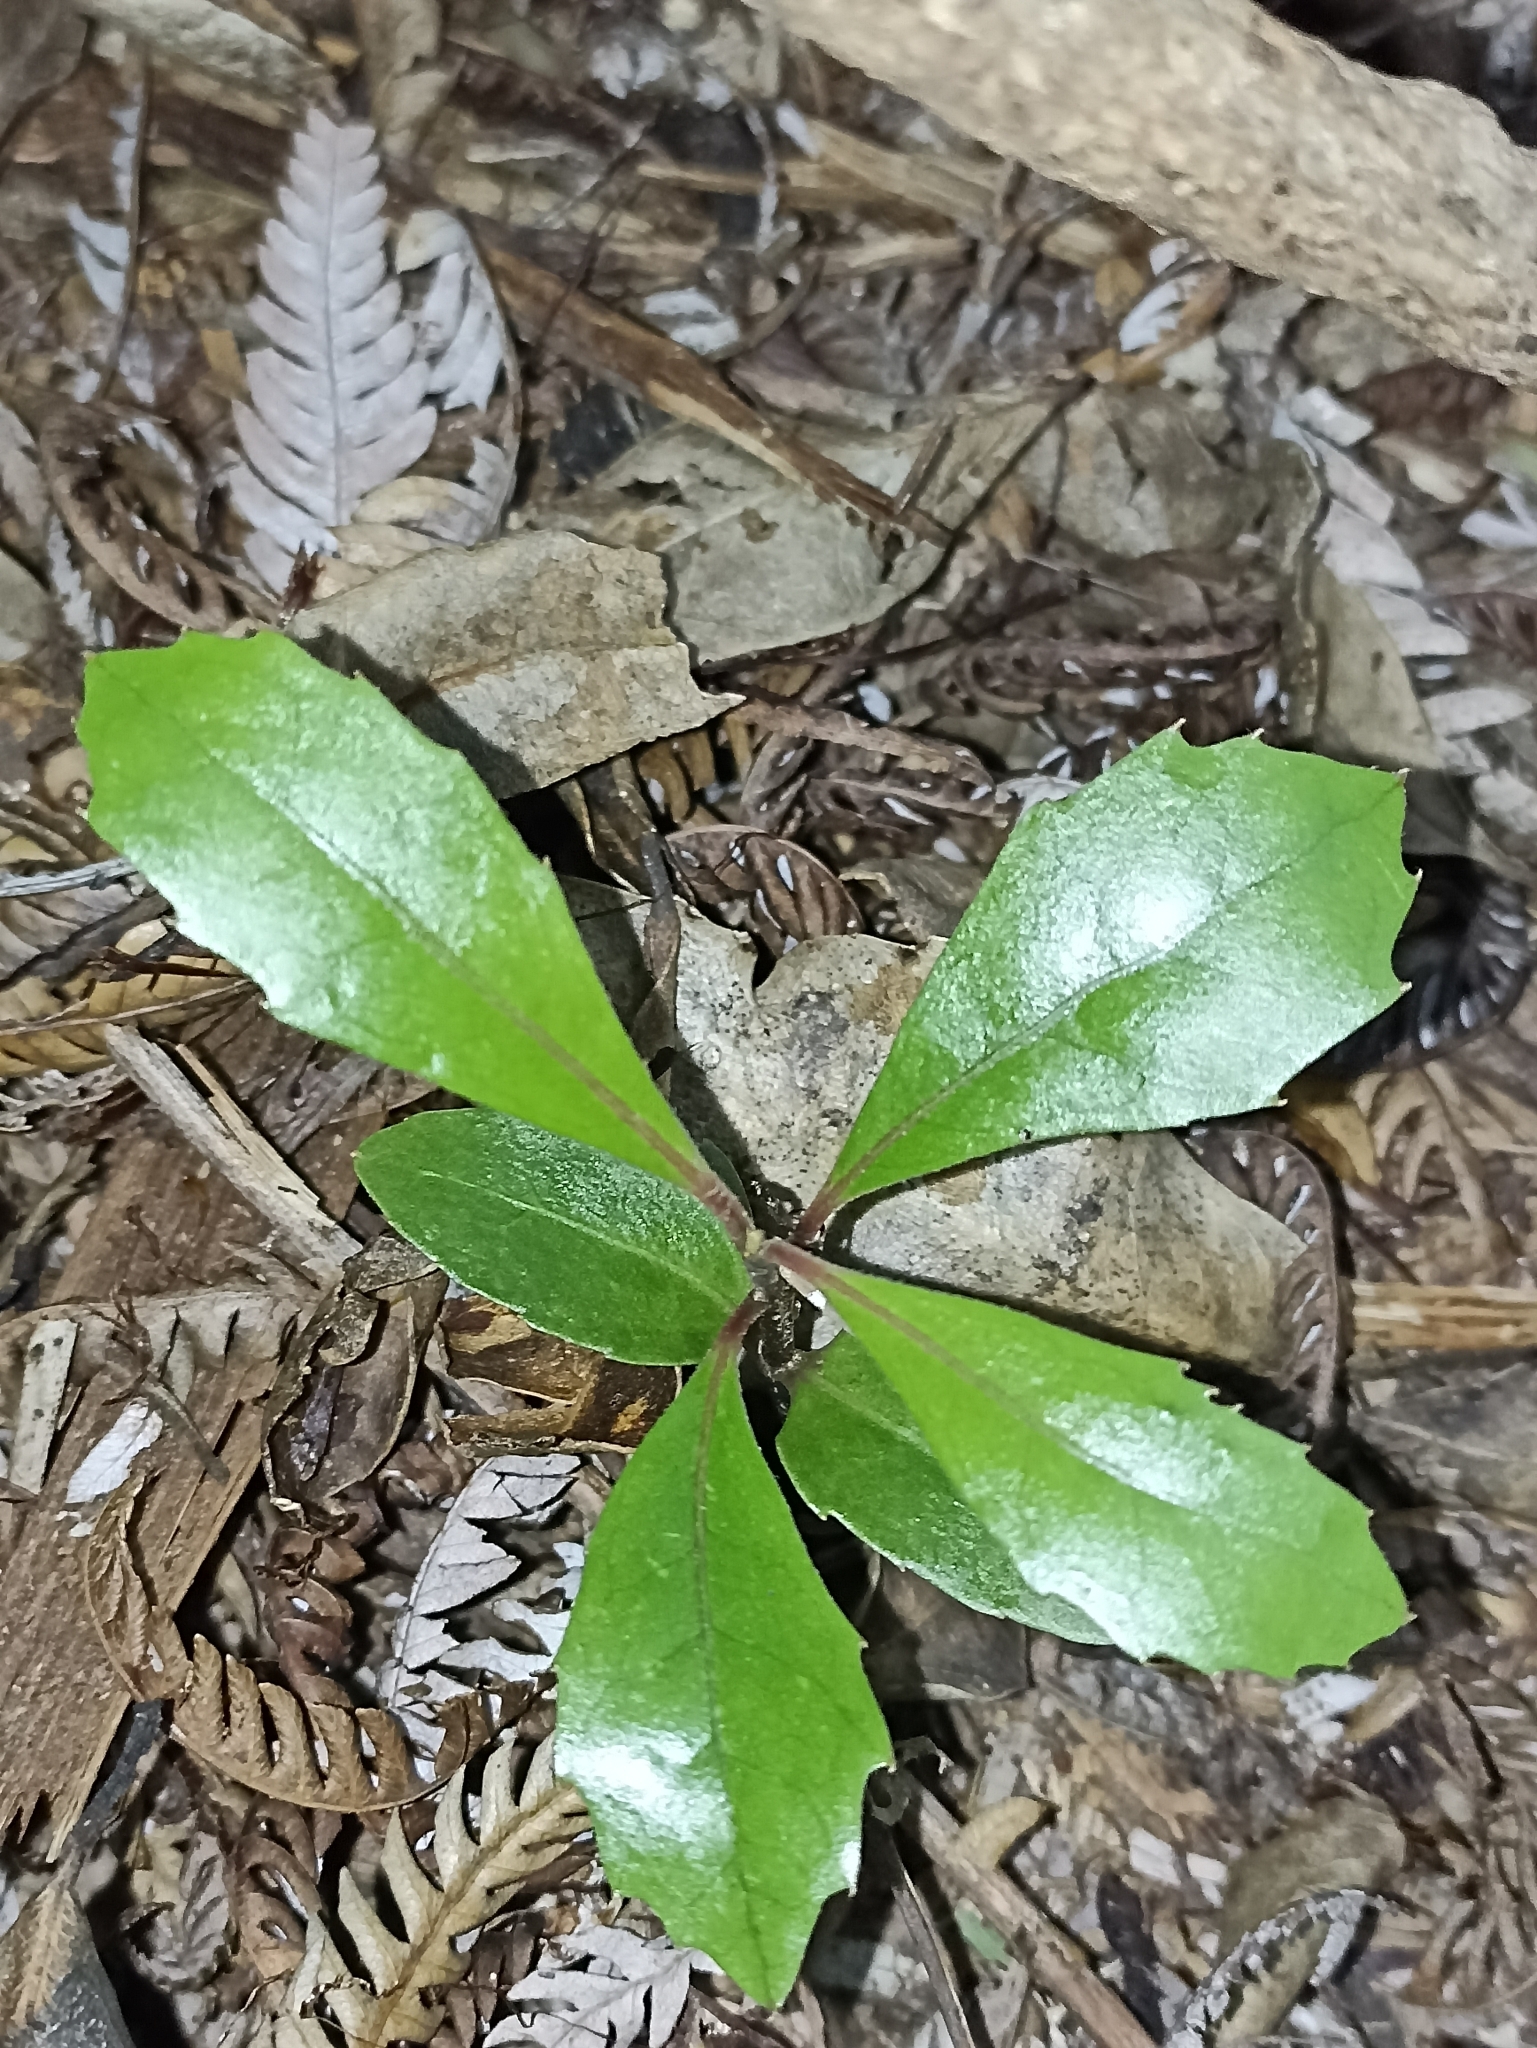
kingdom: Plantae
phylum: Tracheophyta
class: Magnoliopsida
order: Laurales
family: Monimiaceae
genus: Hedycarya
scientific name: Hedycarya arborea
